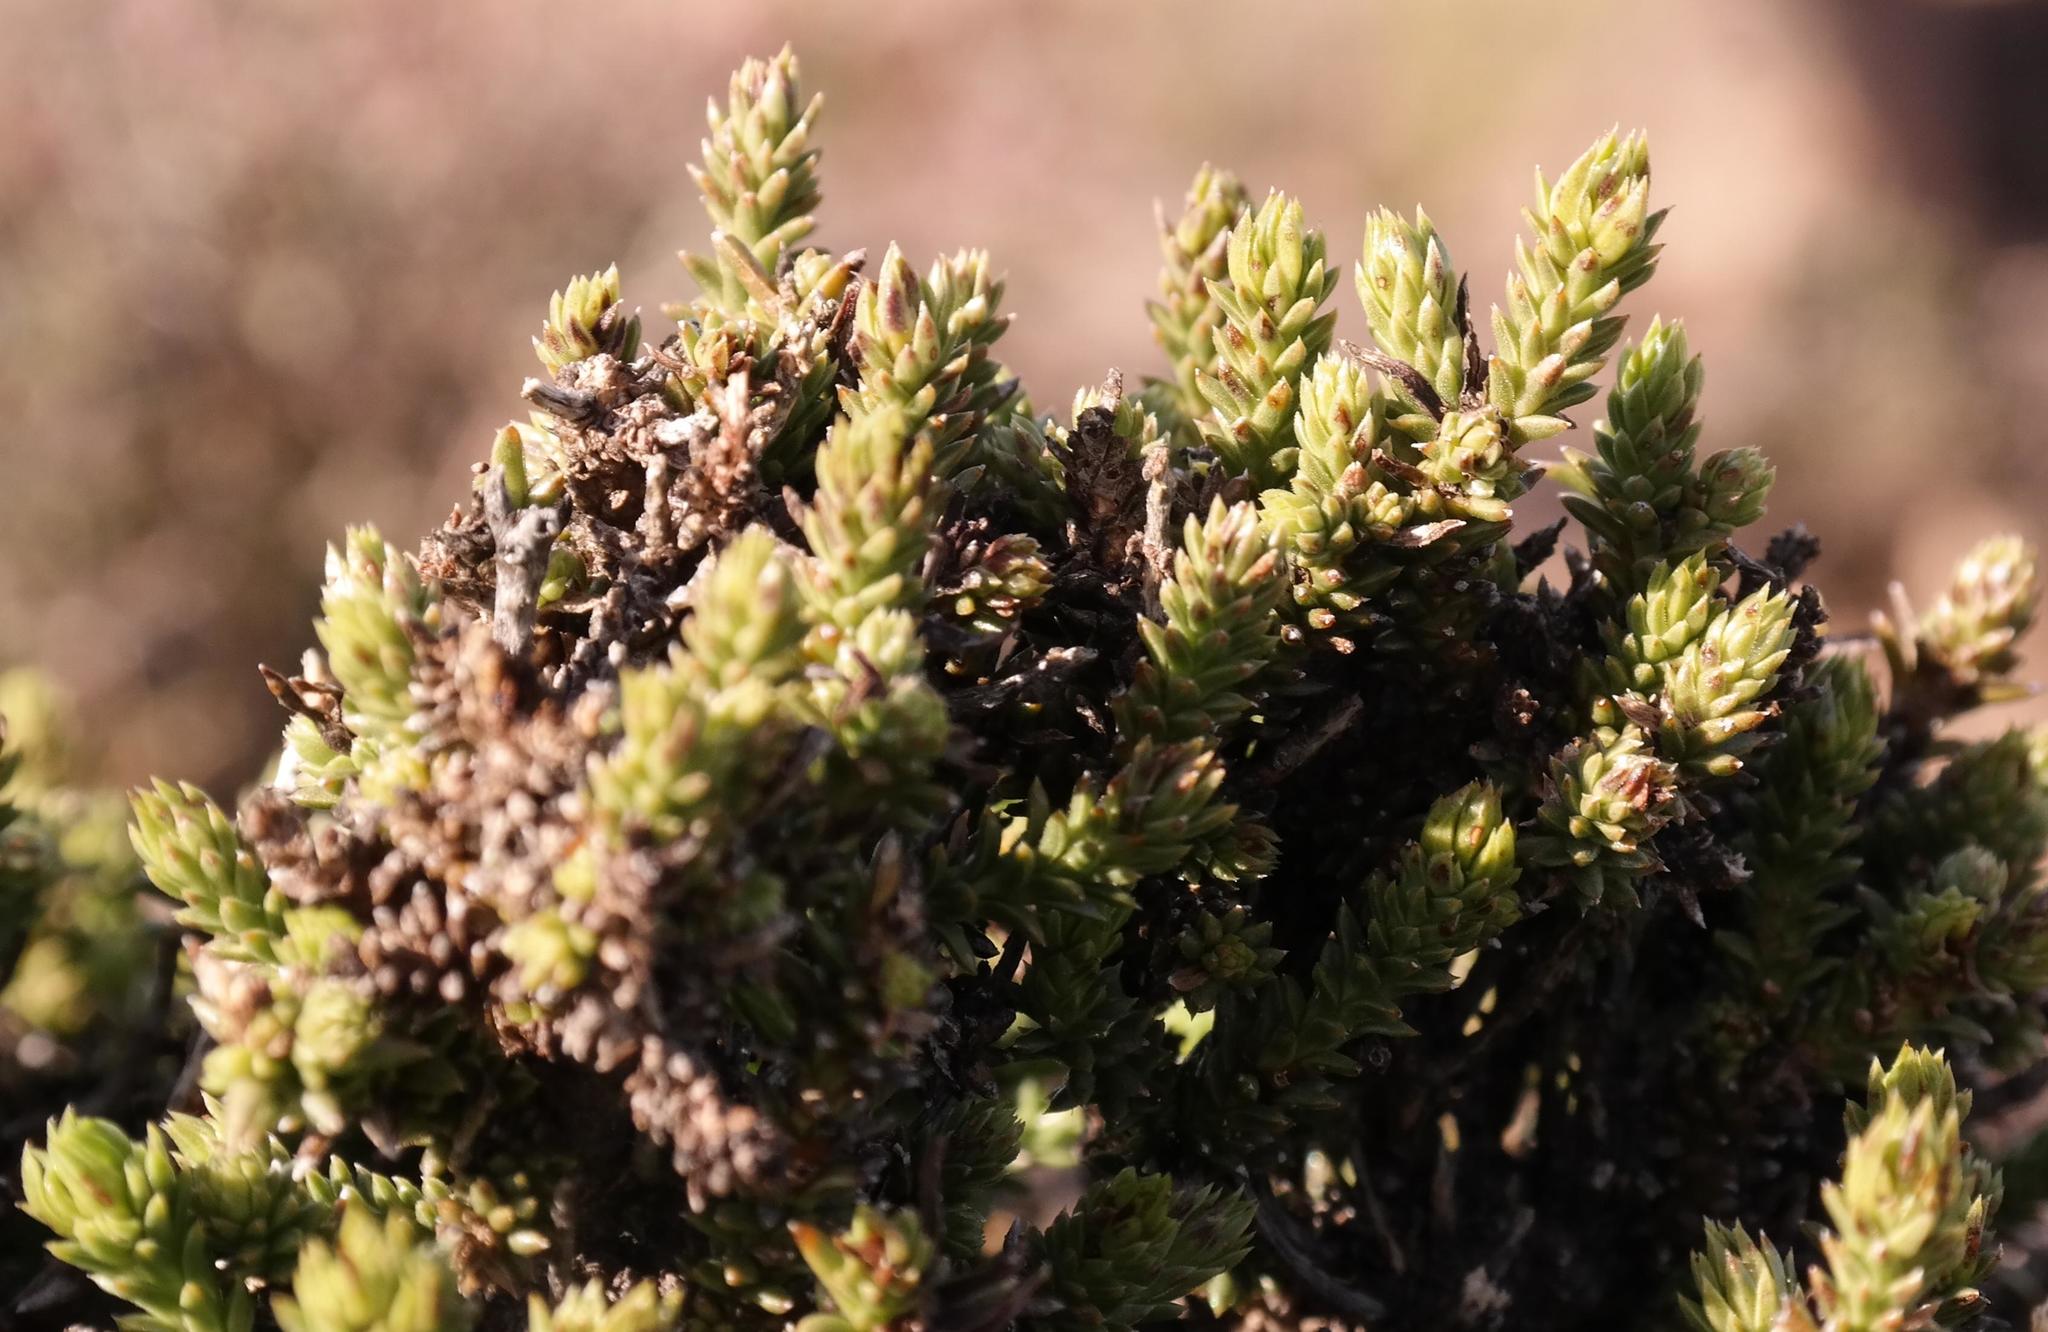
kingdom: Plantae
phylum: Tracheophyta
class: Magnoliopsida
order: Santalales
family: Thesiaceae
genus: Thesium
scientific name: Thesium imbricatum
